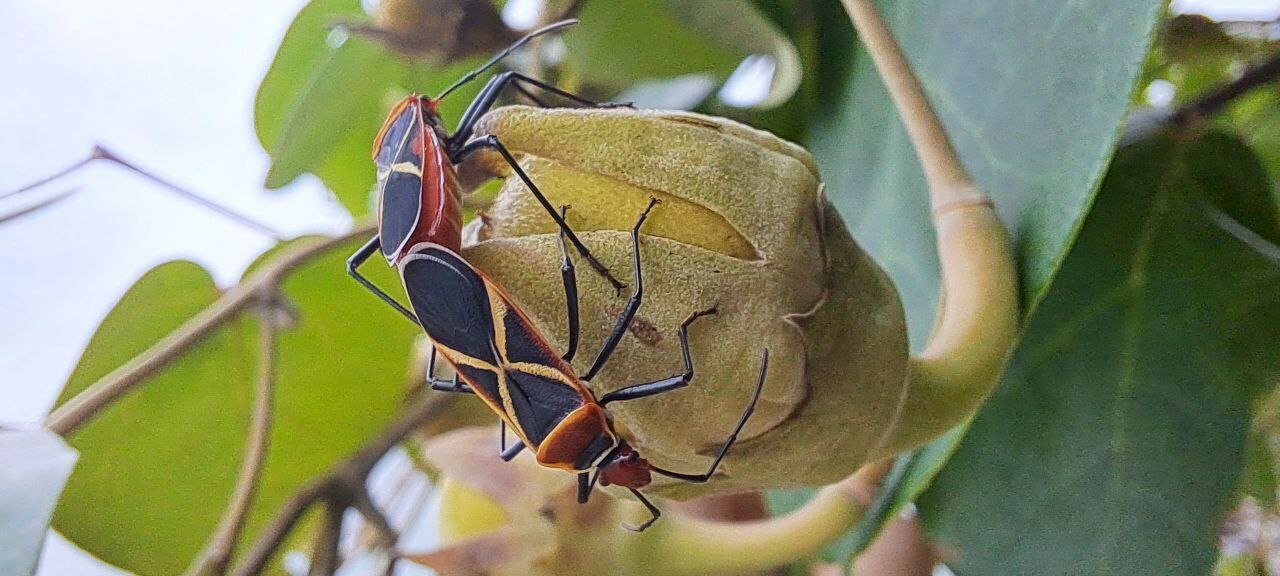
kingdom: Animalia
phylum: Arthropoda
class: Insecta
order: Hemiptera
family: Pyrrhocoridae
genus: Dysdercus
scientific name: Dysdercus decussatus
